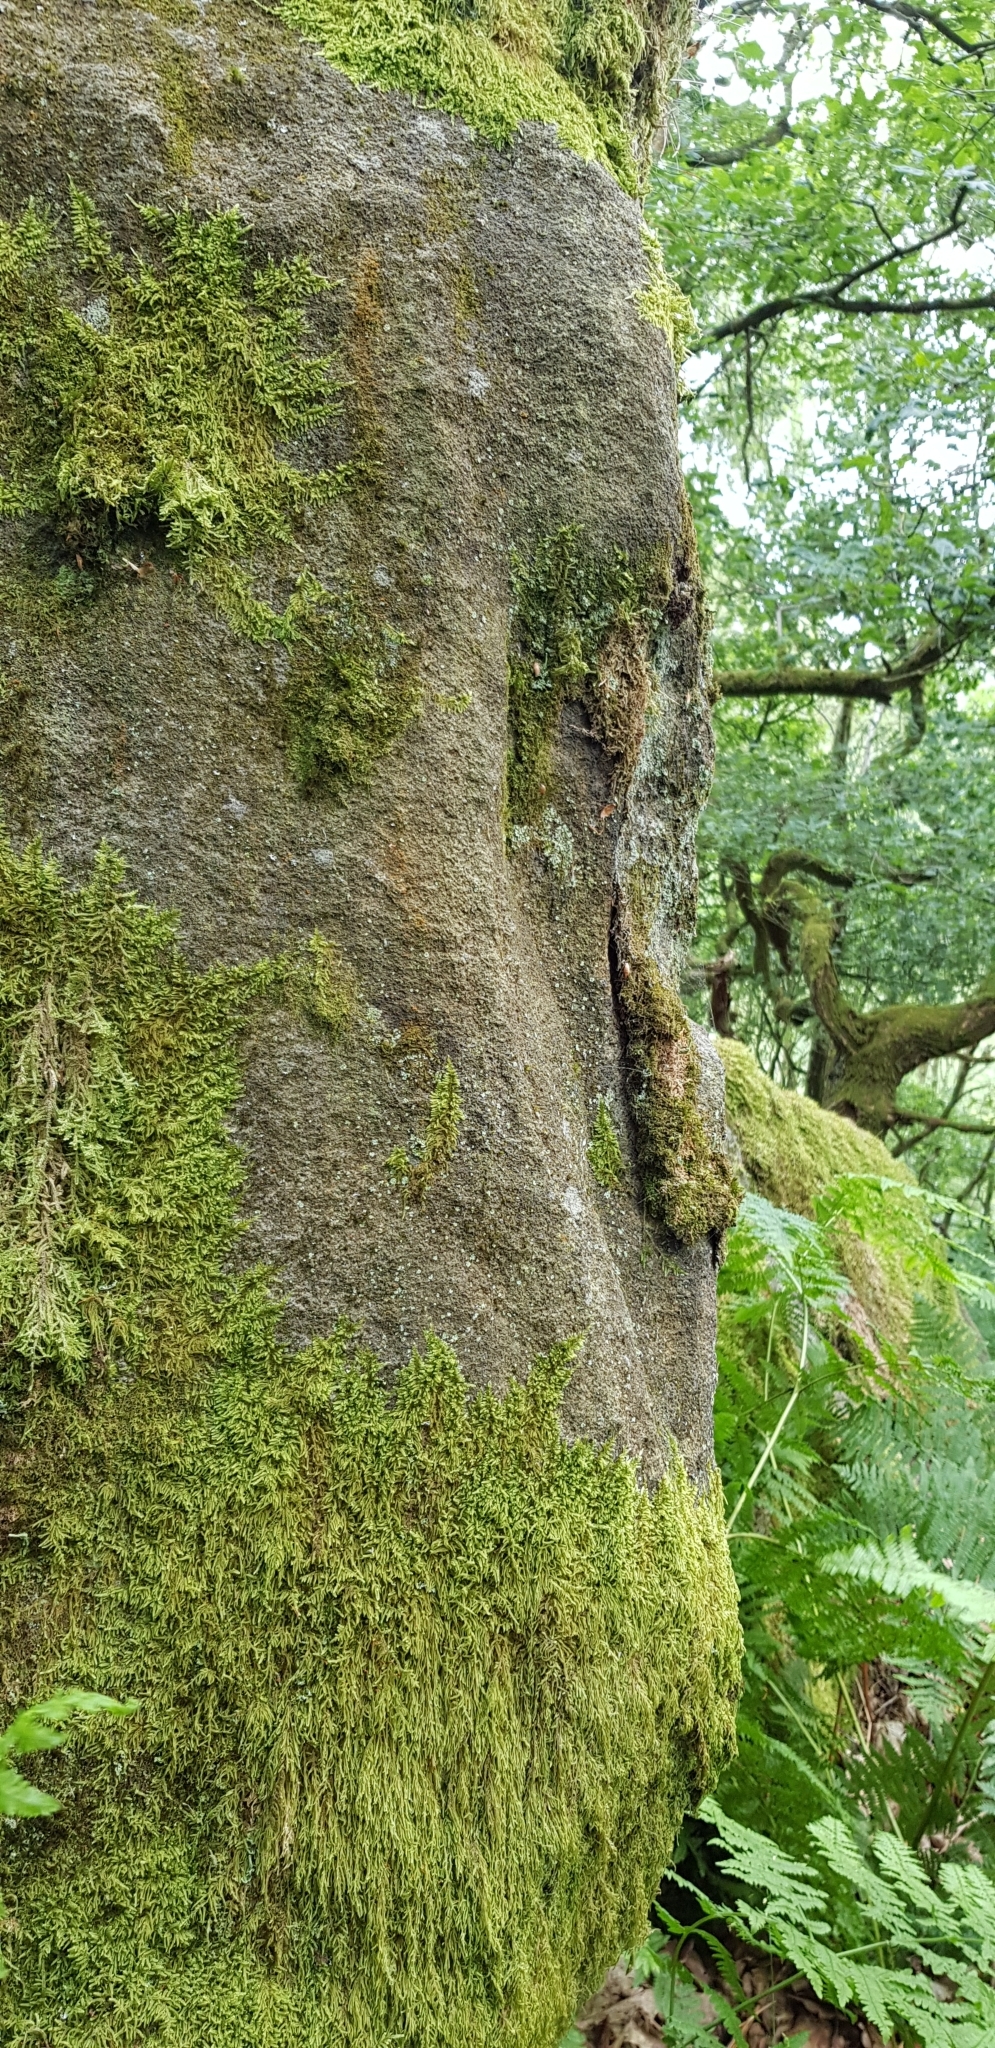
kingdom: Plantae
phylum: Marchantiophyta
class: Jungermanniopsida
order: Jungermanniales
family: Lepidoziaceae
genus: Lepidozia
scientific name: Lepidozia reptans
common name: Creeping fingerwort
